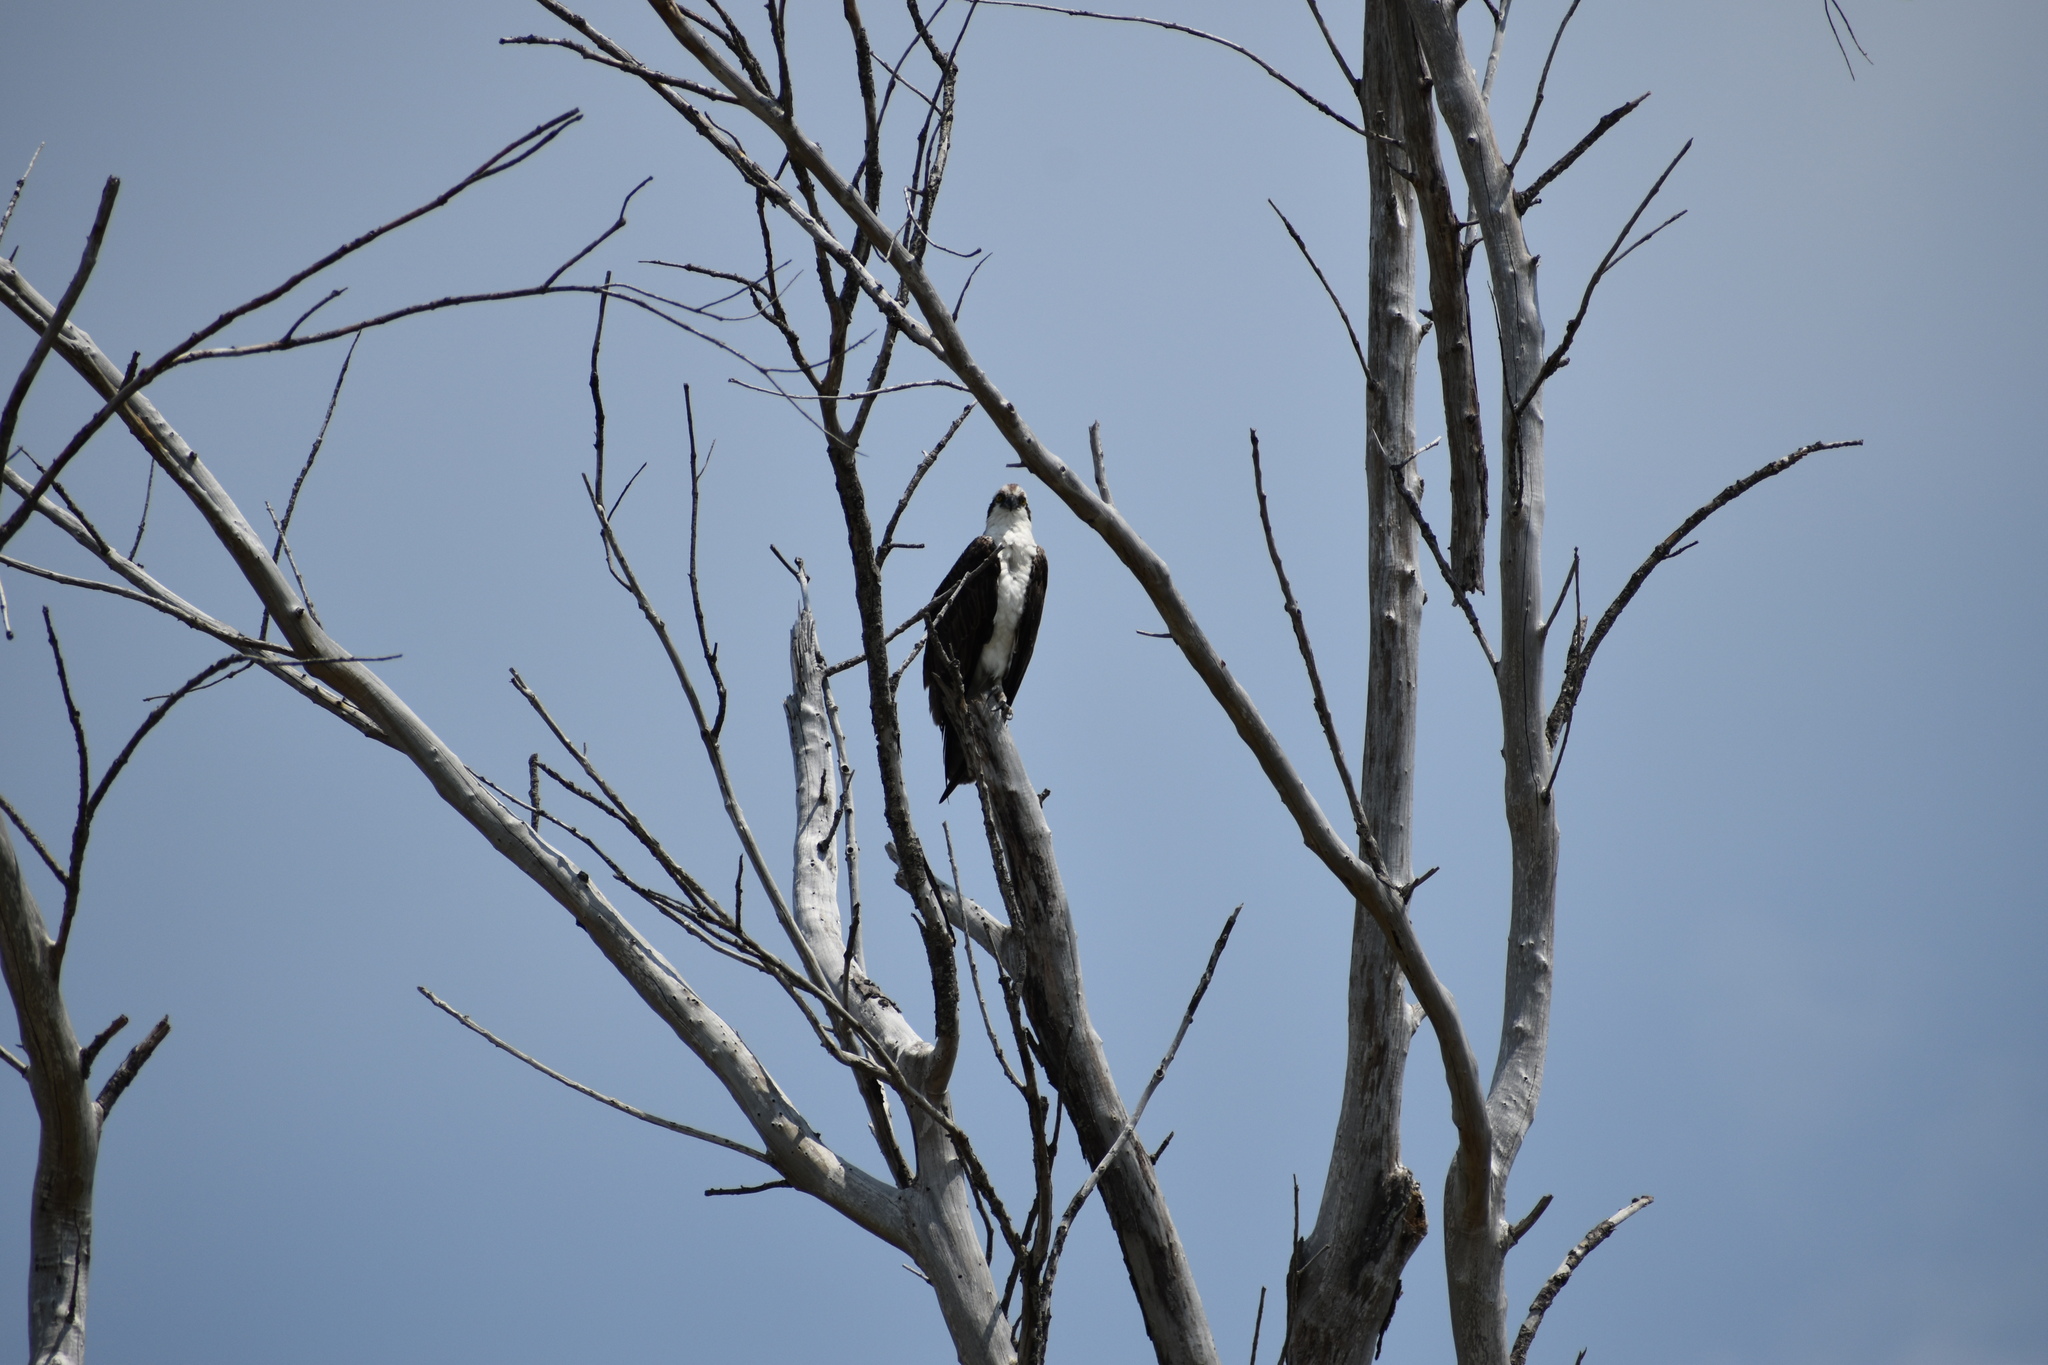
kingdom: Animalia
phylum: Chordata
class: Aves
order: Accipitriformes
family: Pandionidae
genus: Pandion
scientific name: Pandion haliaetus
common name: Osprey
